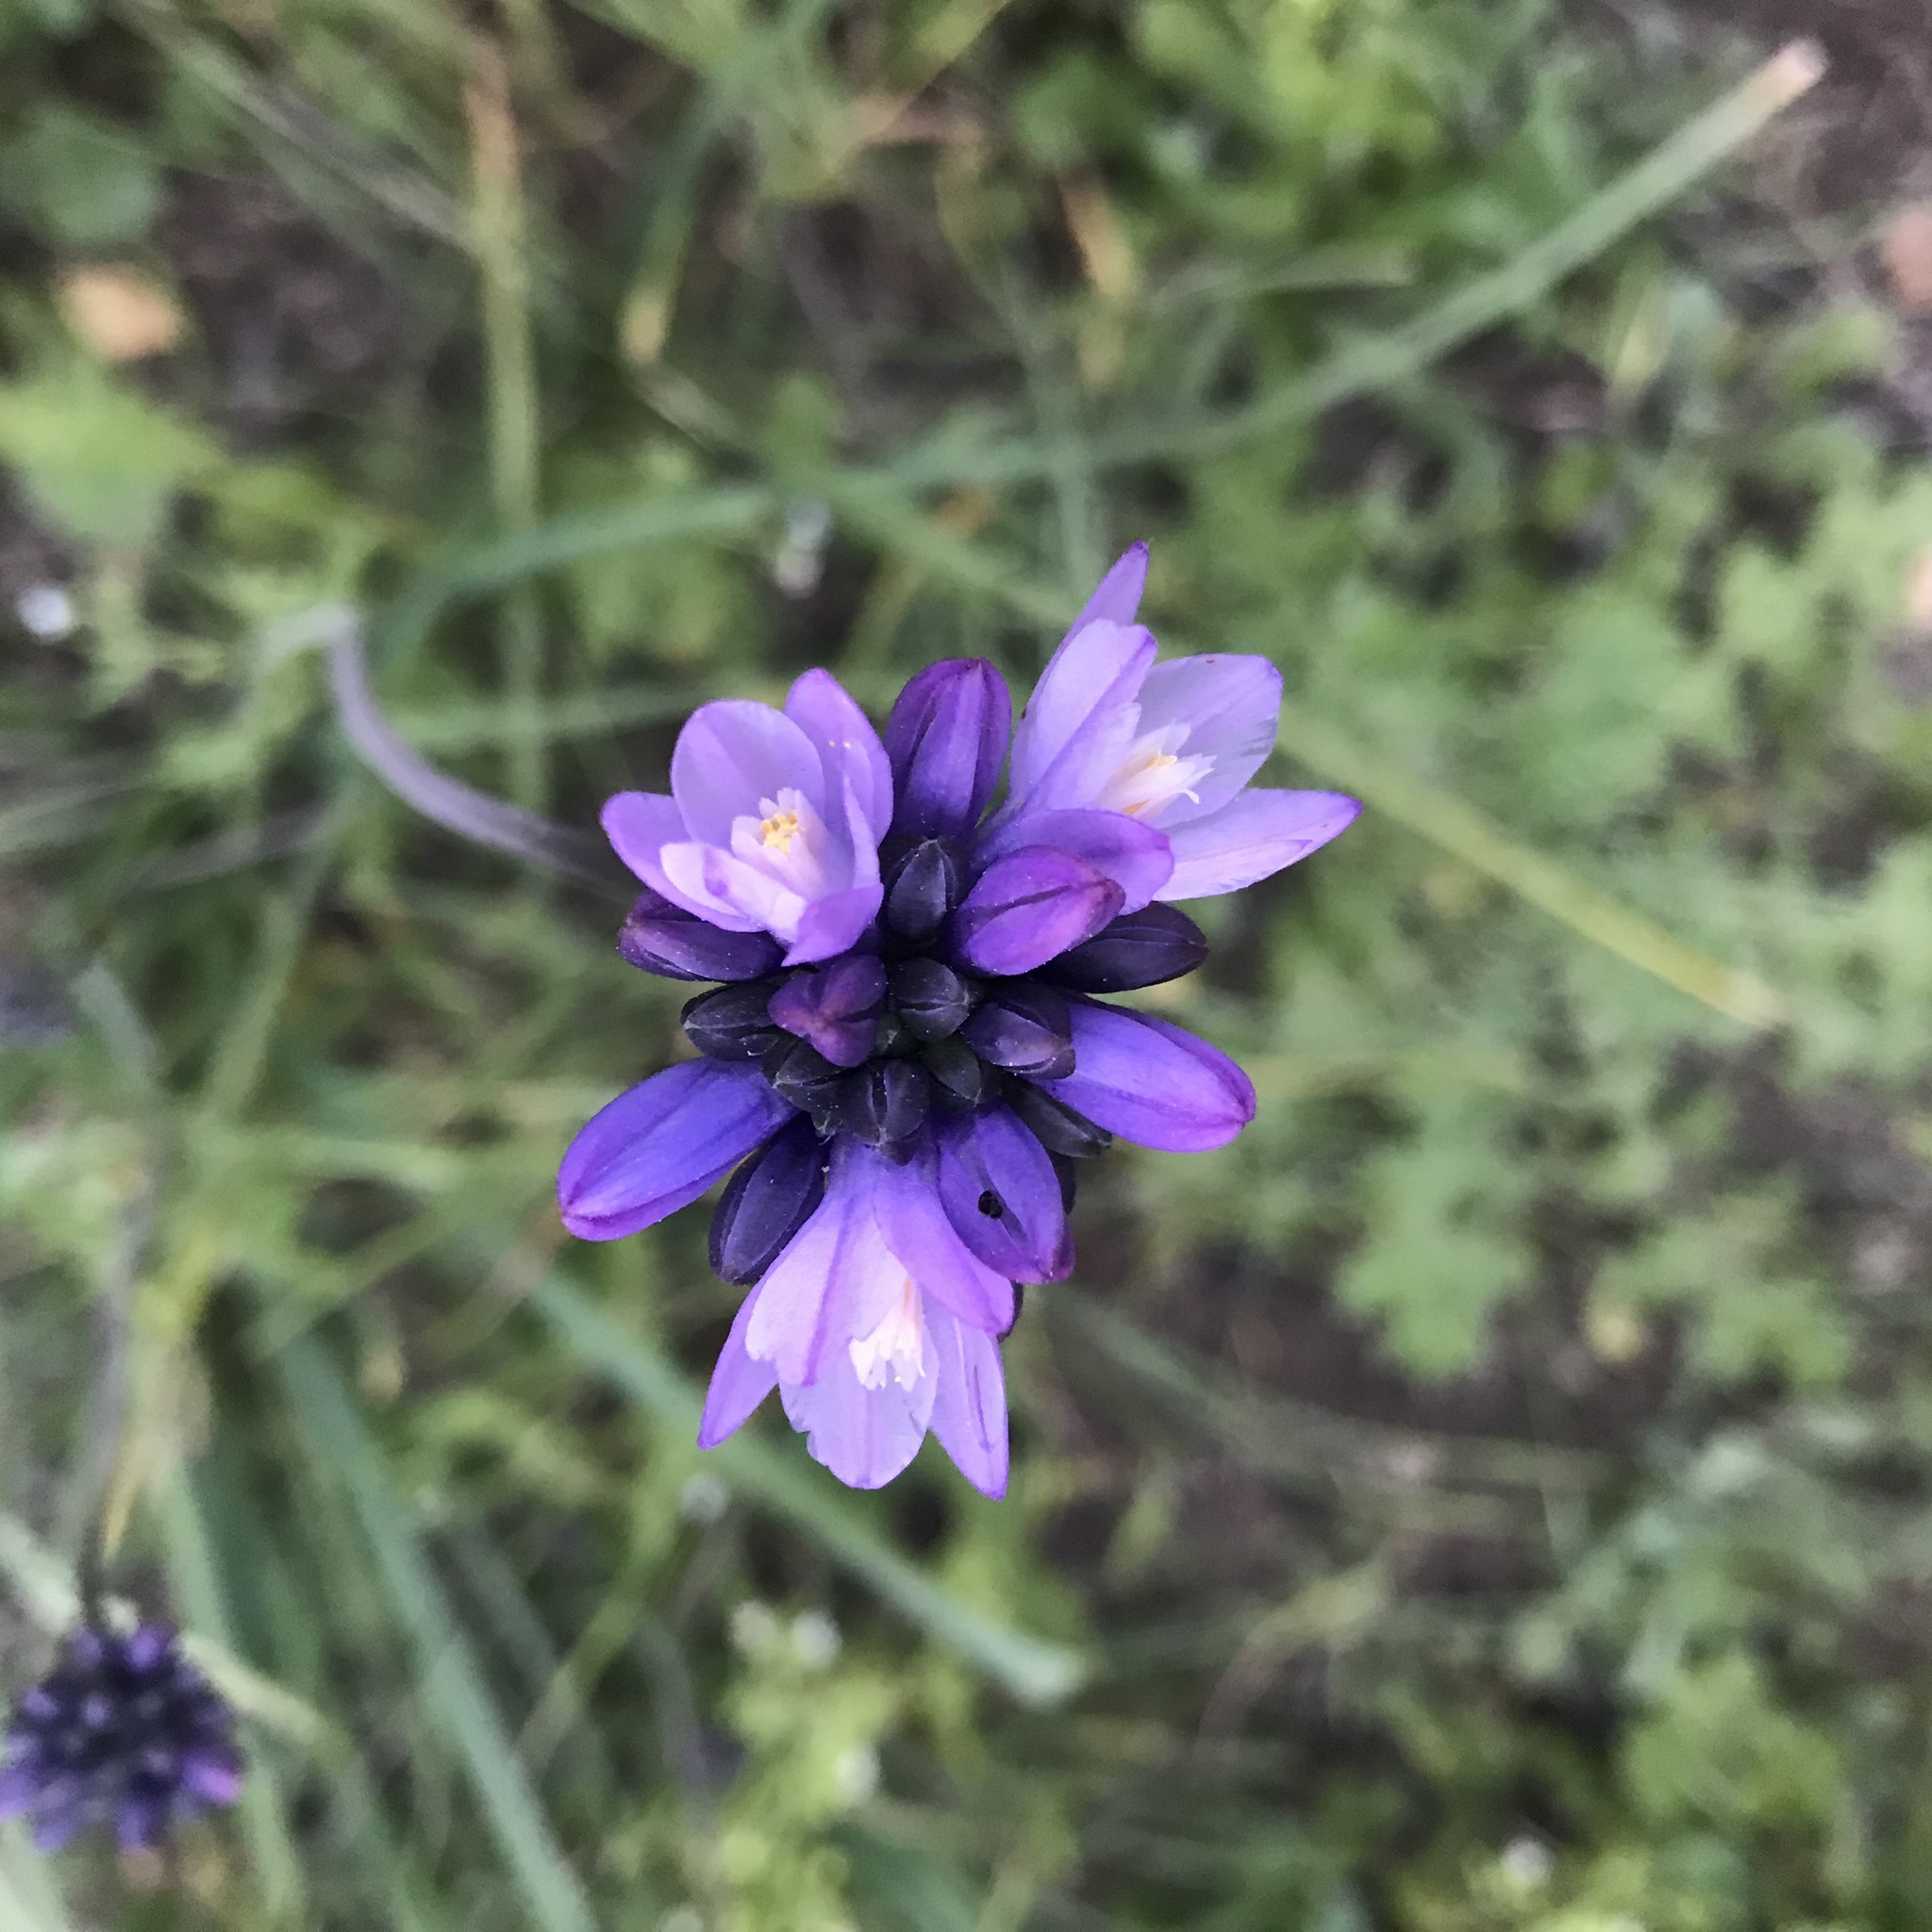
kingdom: Plantae
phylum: Tracheophyta
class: Liliopsida
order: Asparagales
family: Asparagaceae
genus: Dipterostemon
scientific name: Dipterostemon capitatus
